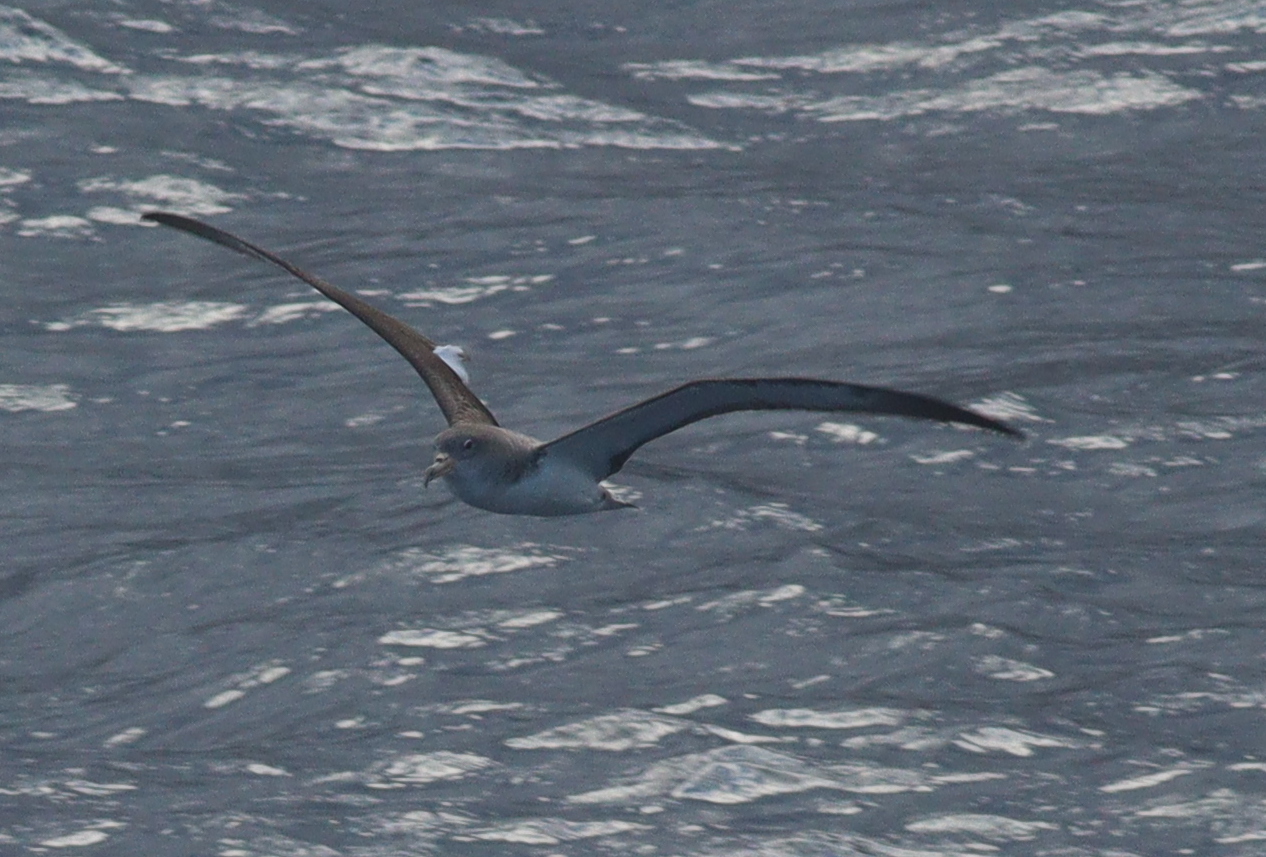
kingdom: Animalia
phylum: Chordata
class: Aves
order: Procellariiformes
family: Procellariidae
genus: Calonectris
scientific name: Calonectris diomedea
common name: Cory's shearwater
